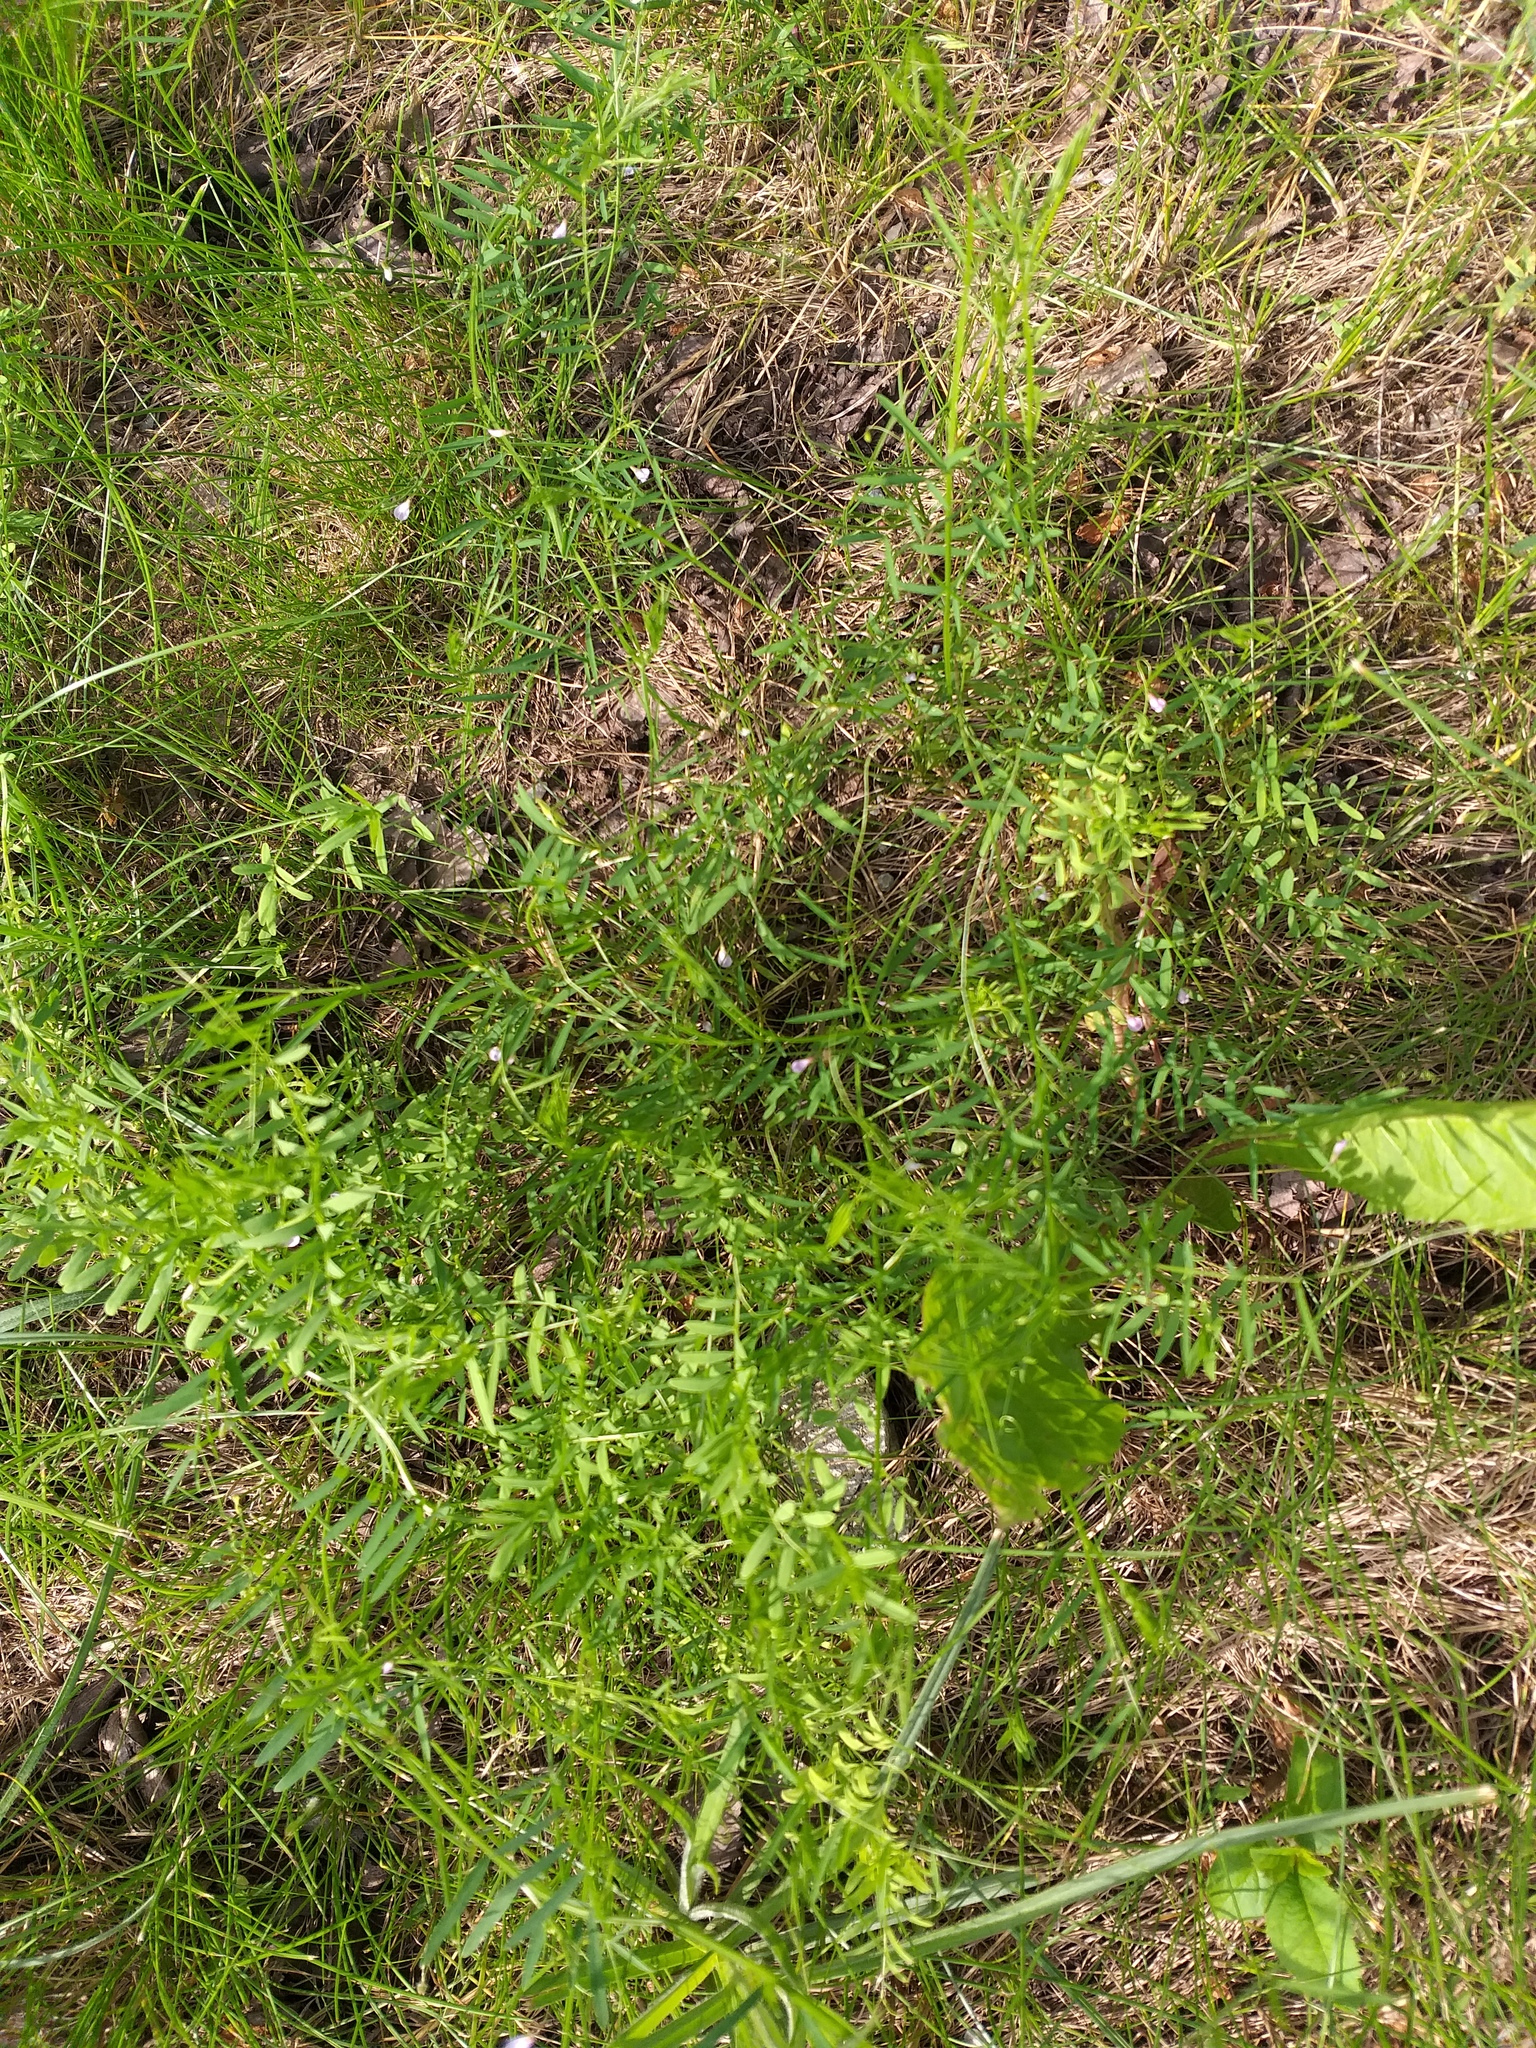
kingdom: Plantae
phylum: Tracheophyta
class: Magnoliopsida
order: Fabales
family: Fabaceae
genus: Vicia
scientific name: Vicia tetrasperma
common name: Smooth tare
